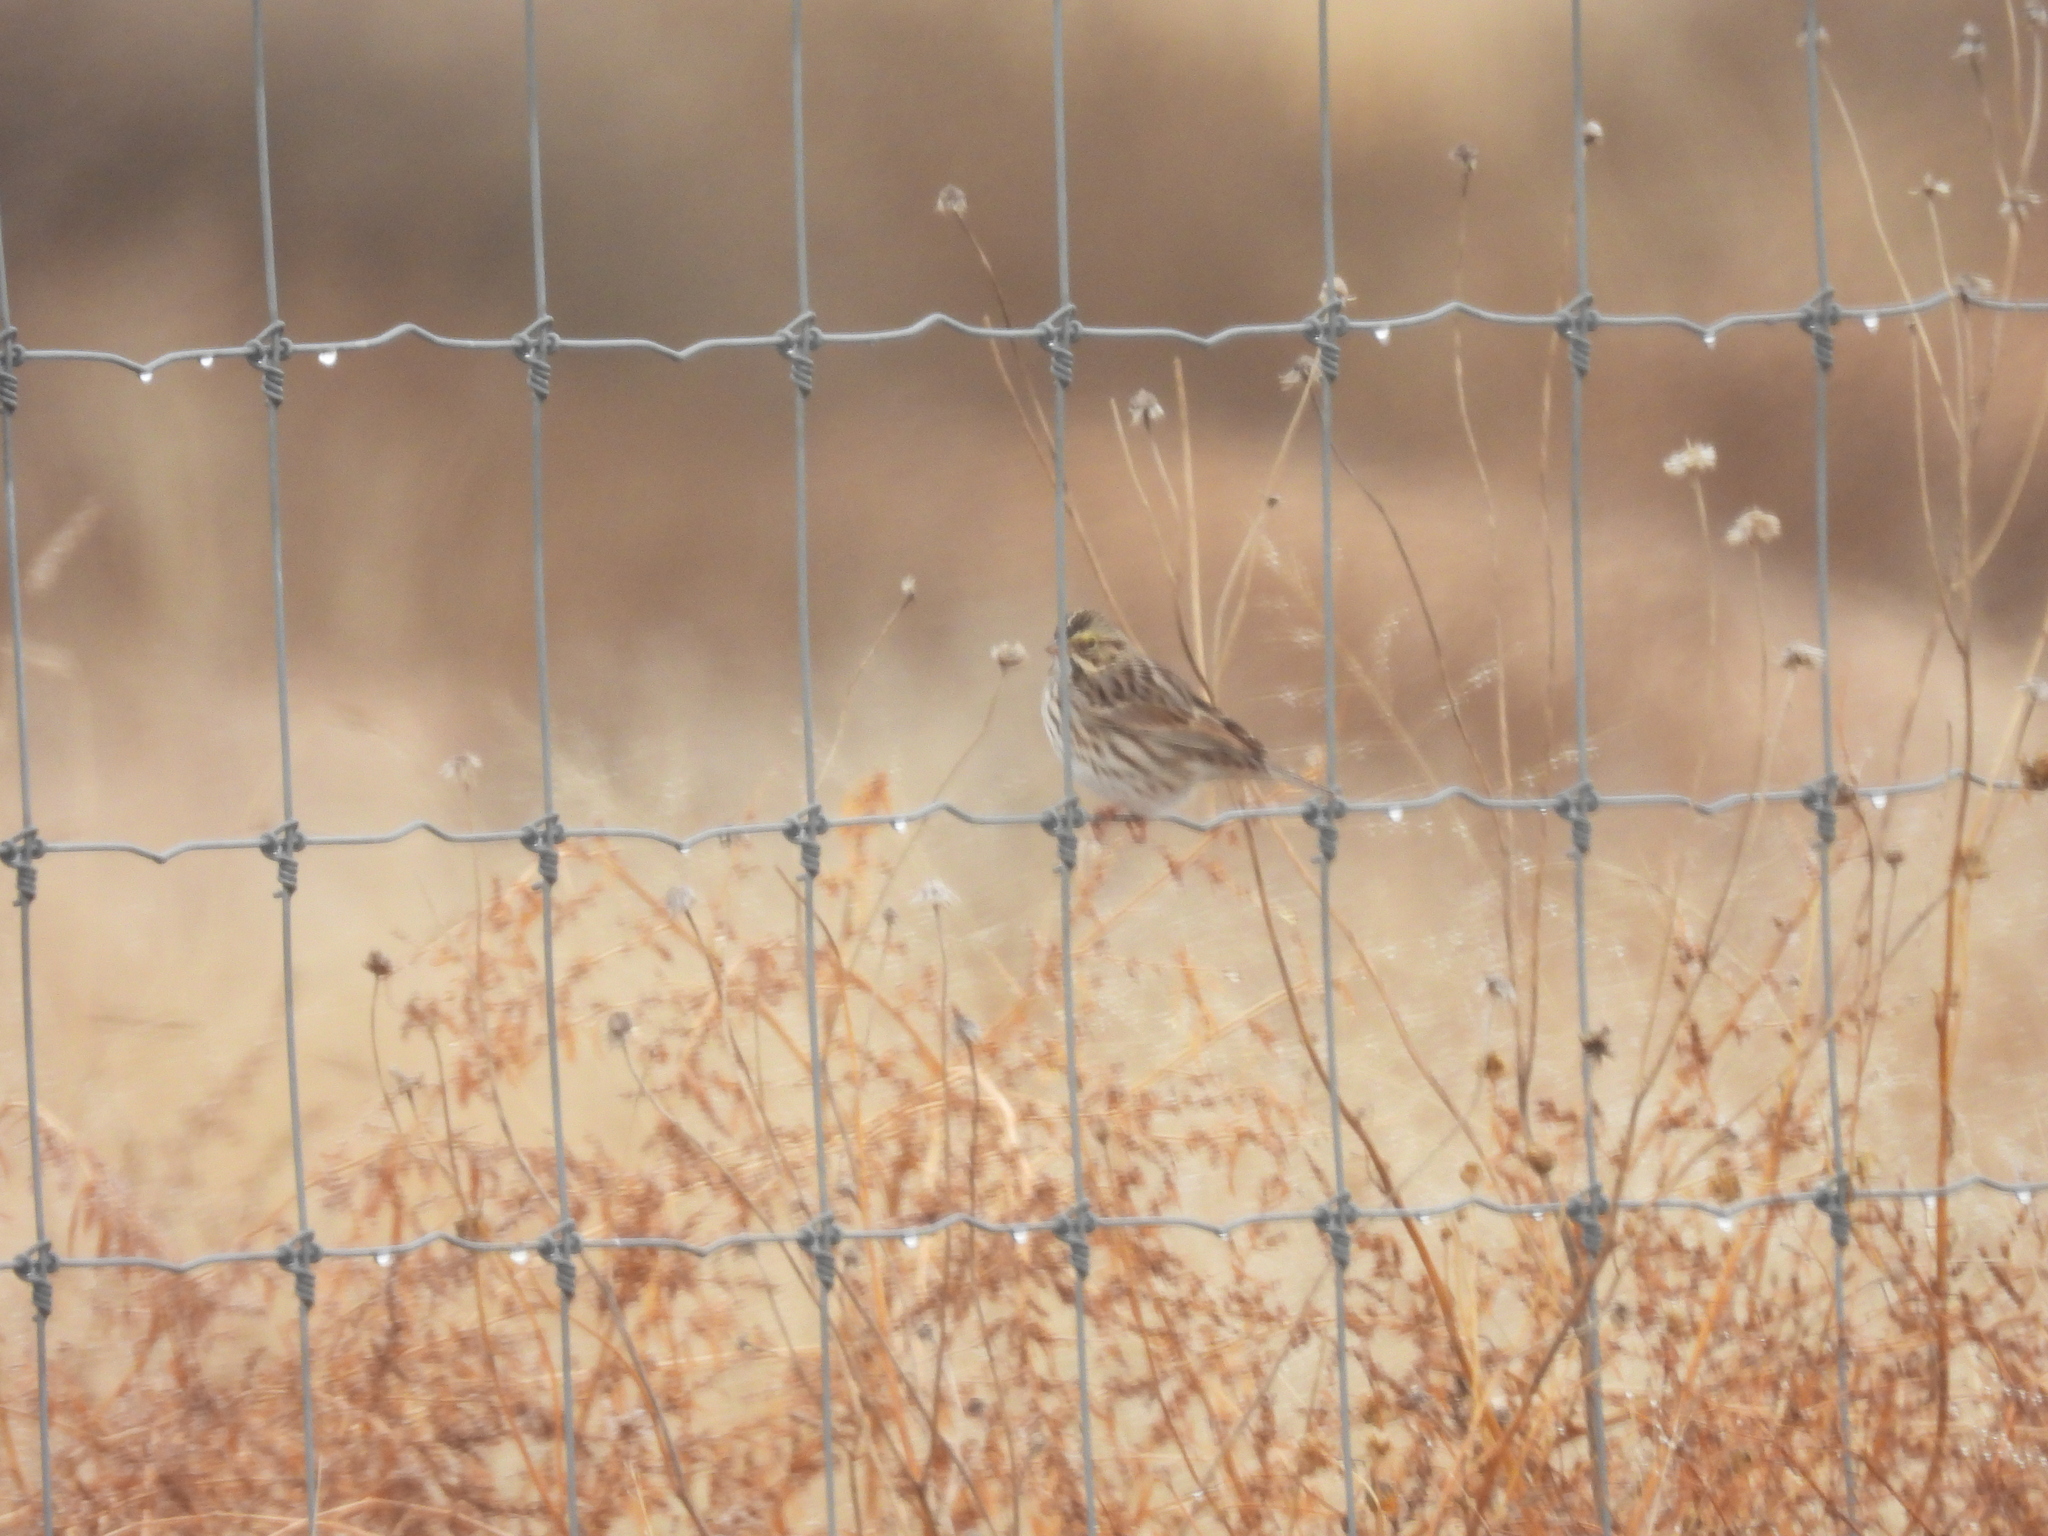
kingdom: Animalia
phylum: Chordata
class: Aves
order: Passeriformes
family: Passerellidae
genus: Passerculus
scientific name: Passerculus sandwichensis
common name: Savannah sparrow
